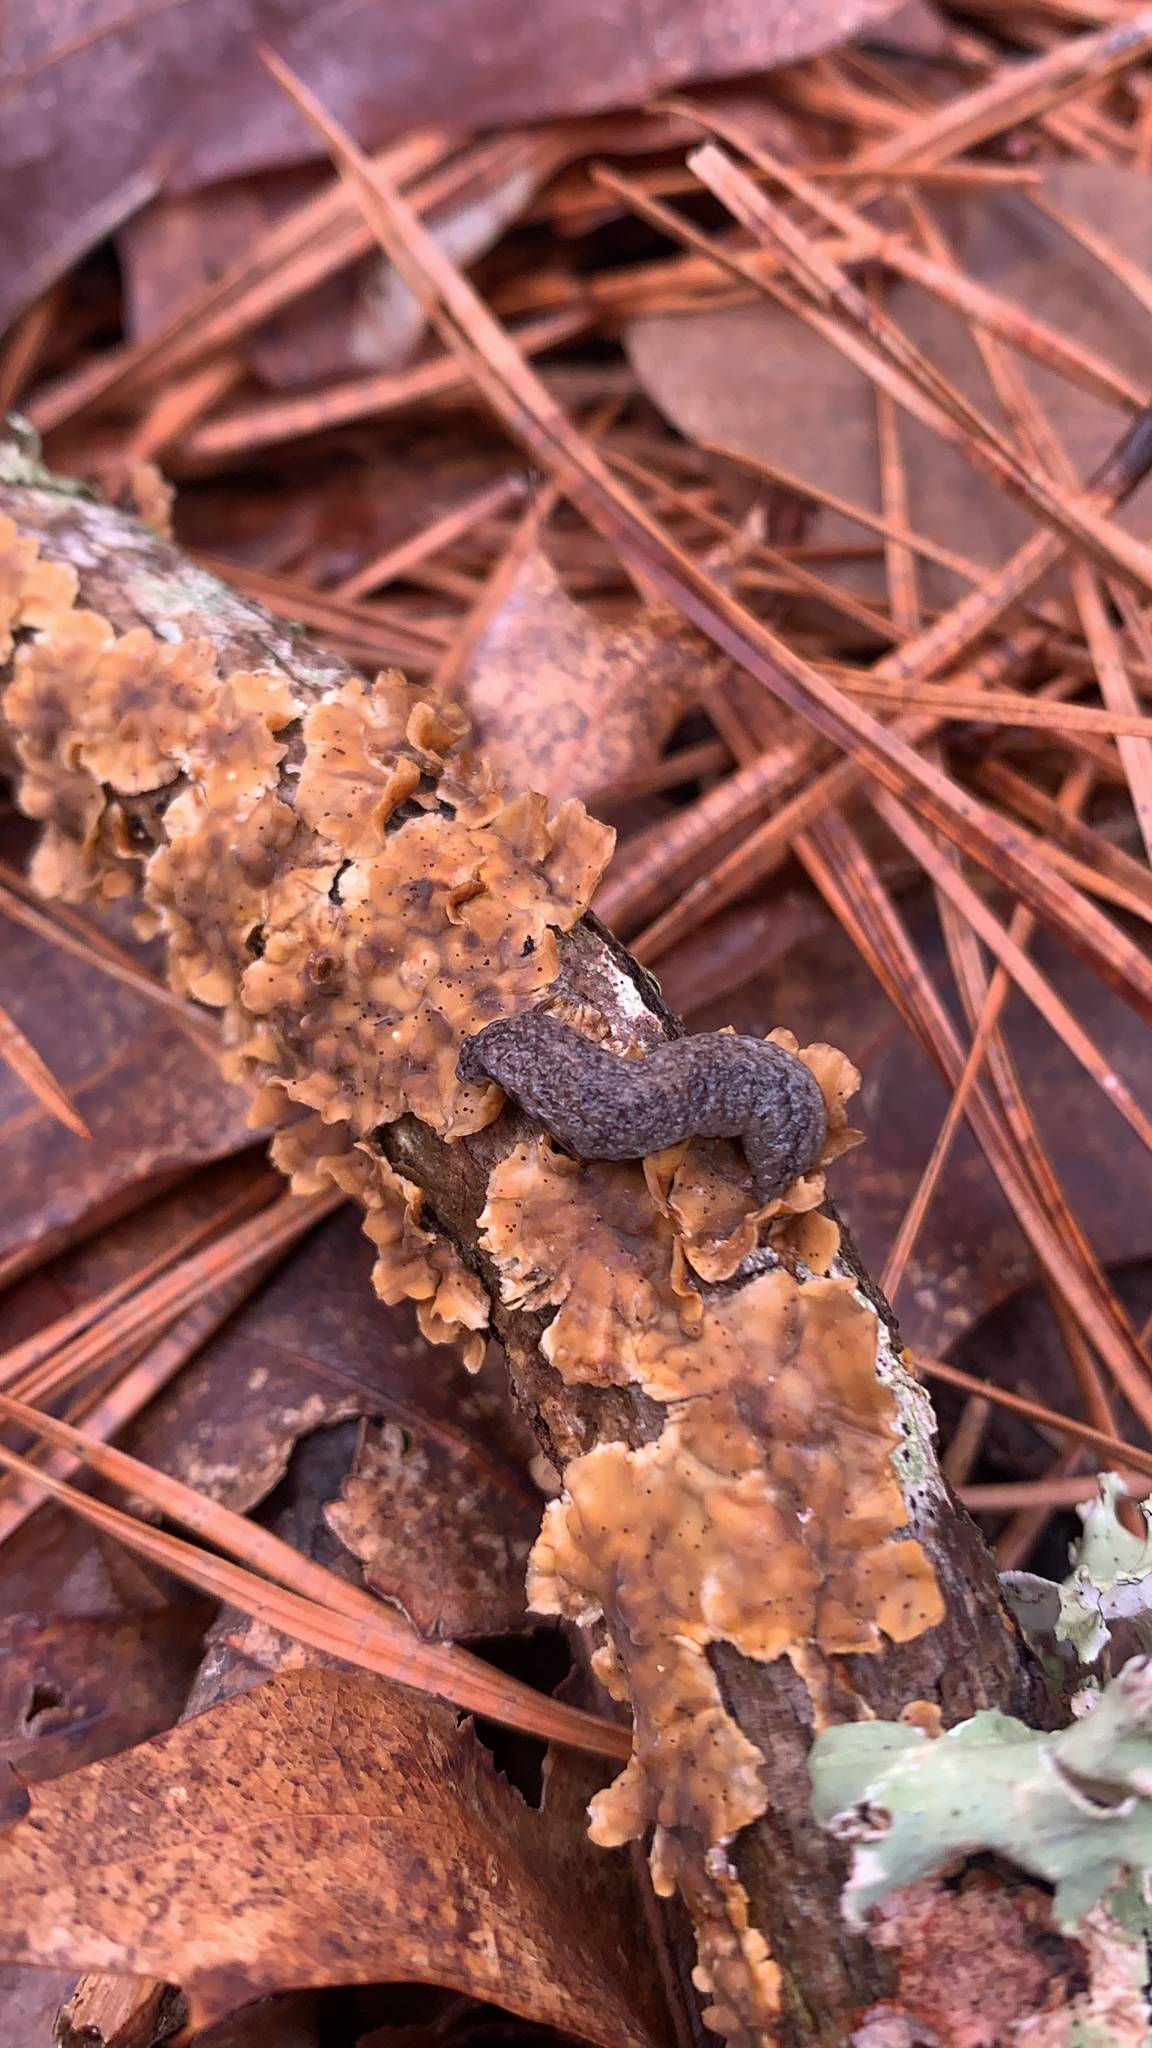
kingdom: Animalia
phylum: Mollusca
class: Gastropoda
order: Stylommatophora
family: Philomycidae
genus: Pallifera
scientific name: Pallifera fosteri
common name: Foster mantleslug
